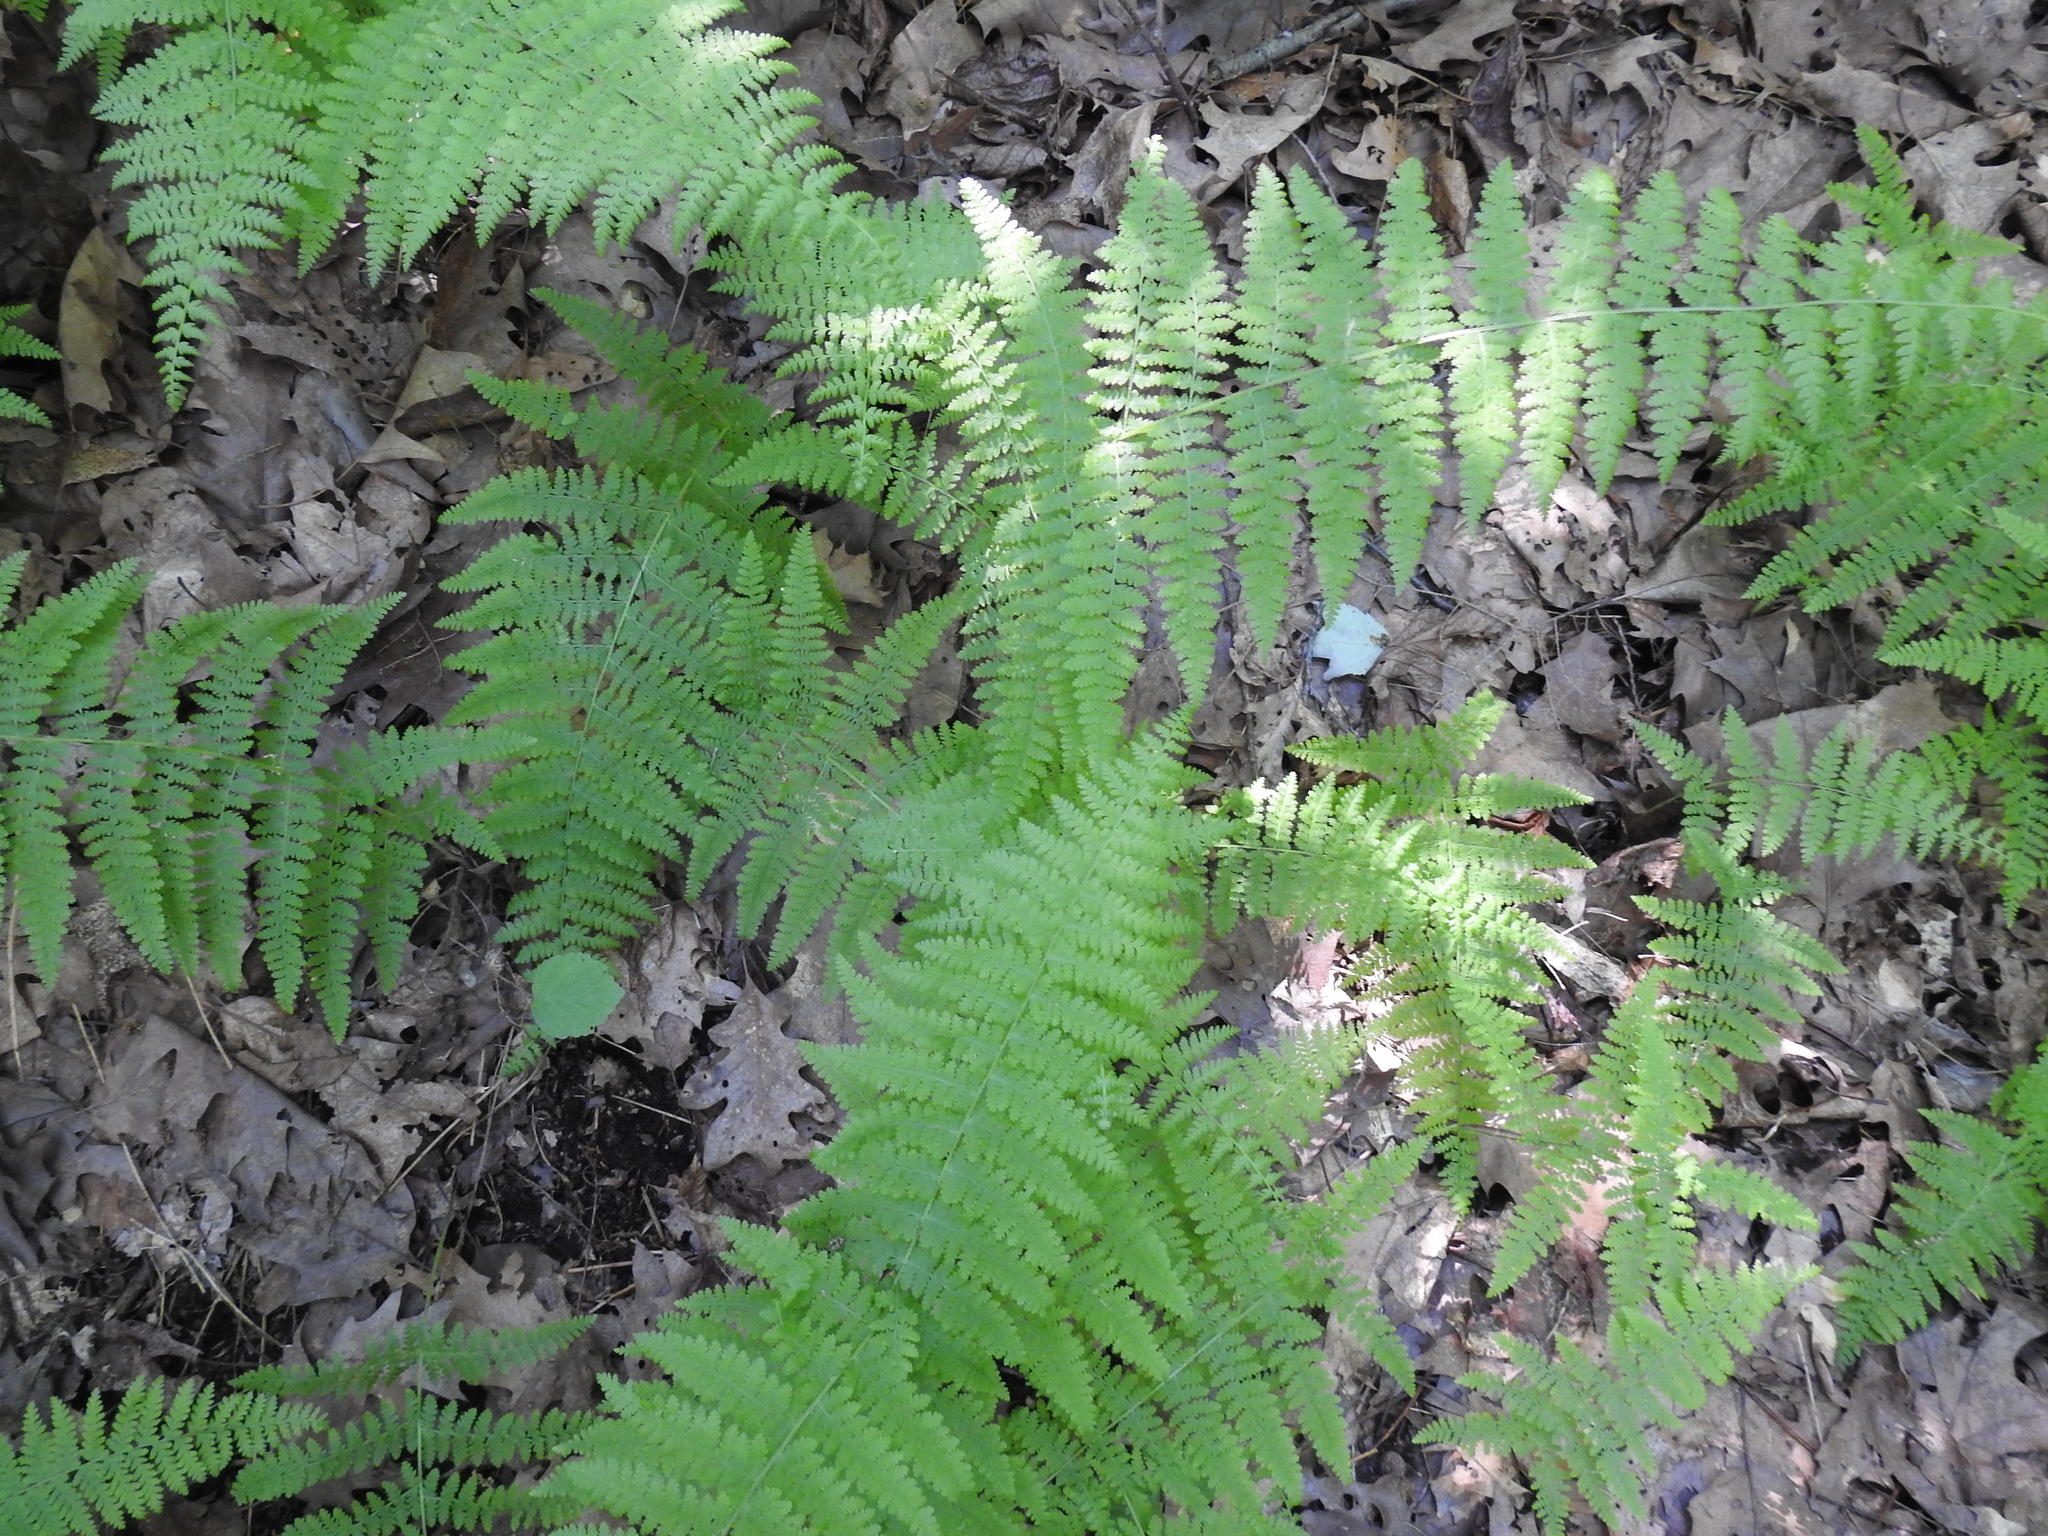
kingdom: Plantae
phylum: Tracheophyta
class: Polypodiopsida
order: Polypodiales
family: Dennstaedtiaceae
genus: Sitobolium
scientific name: Sitobolium punctilobum
